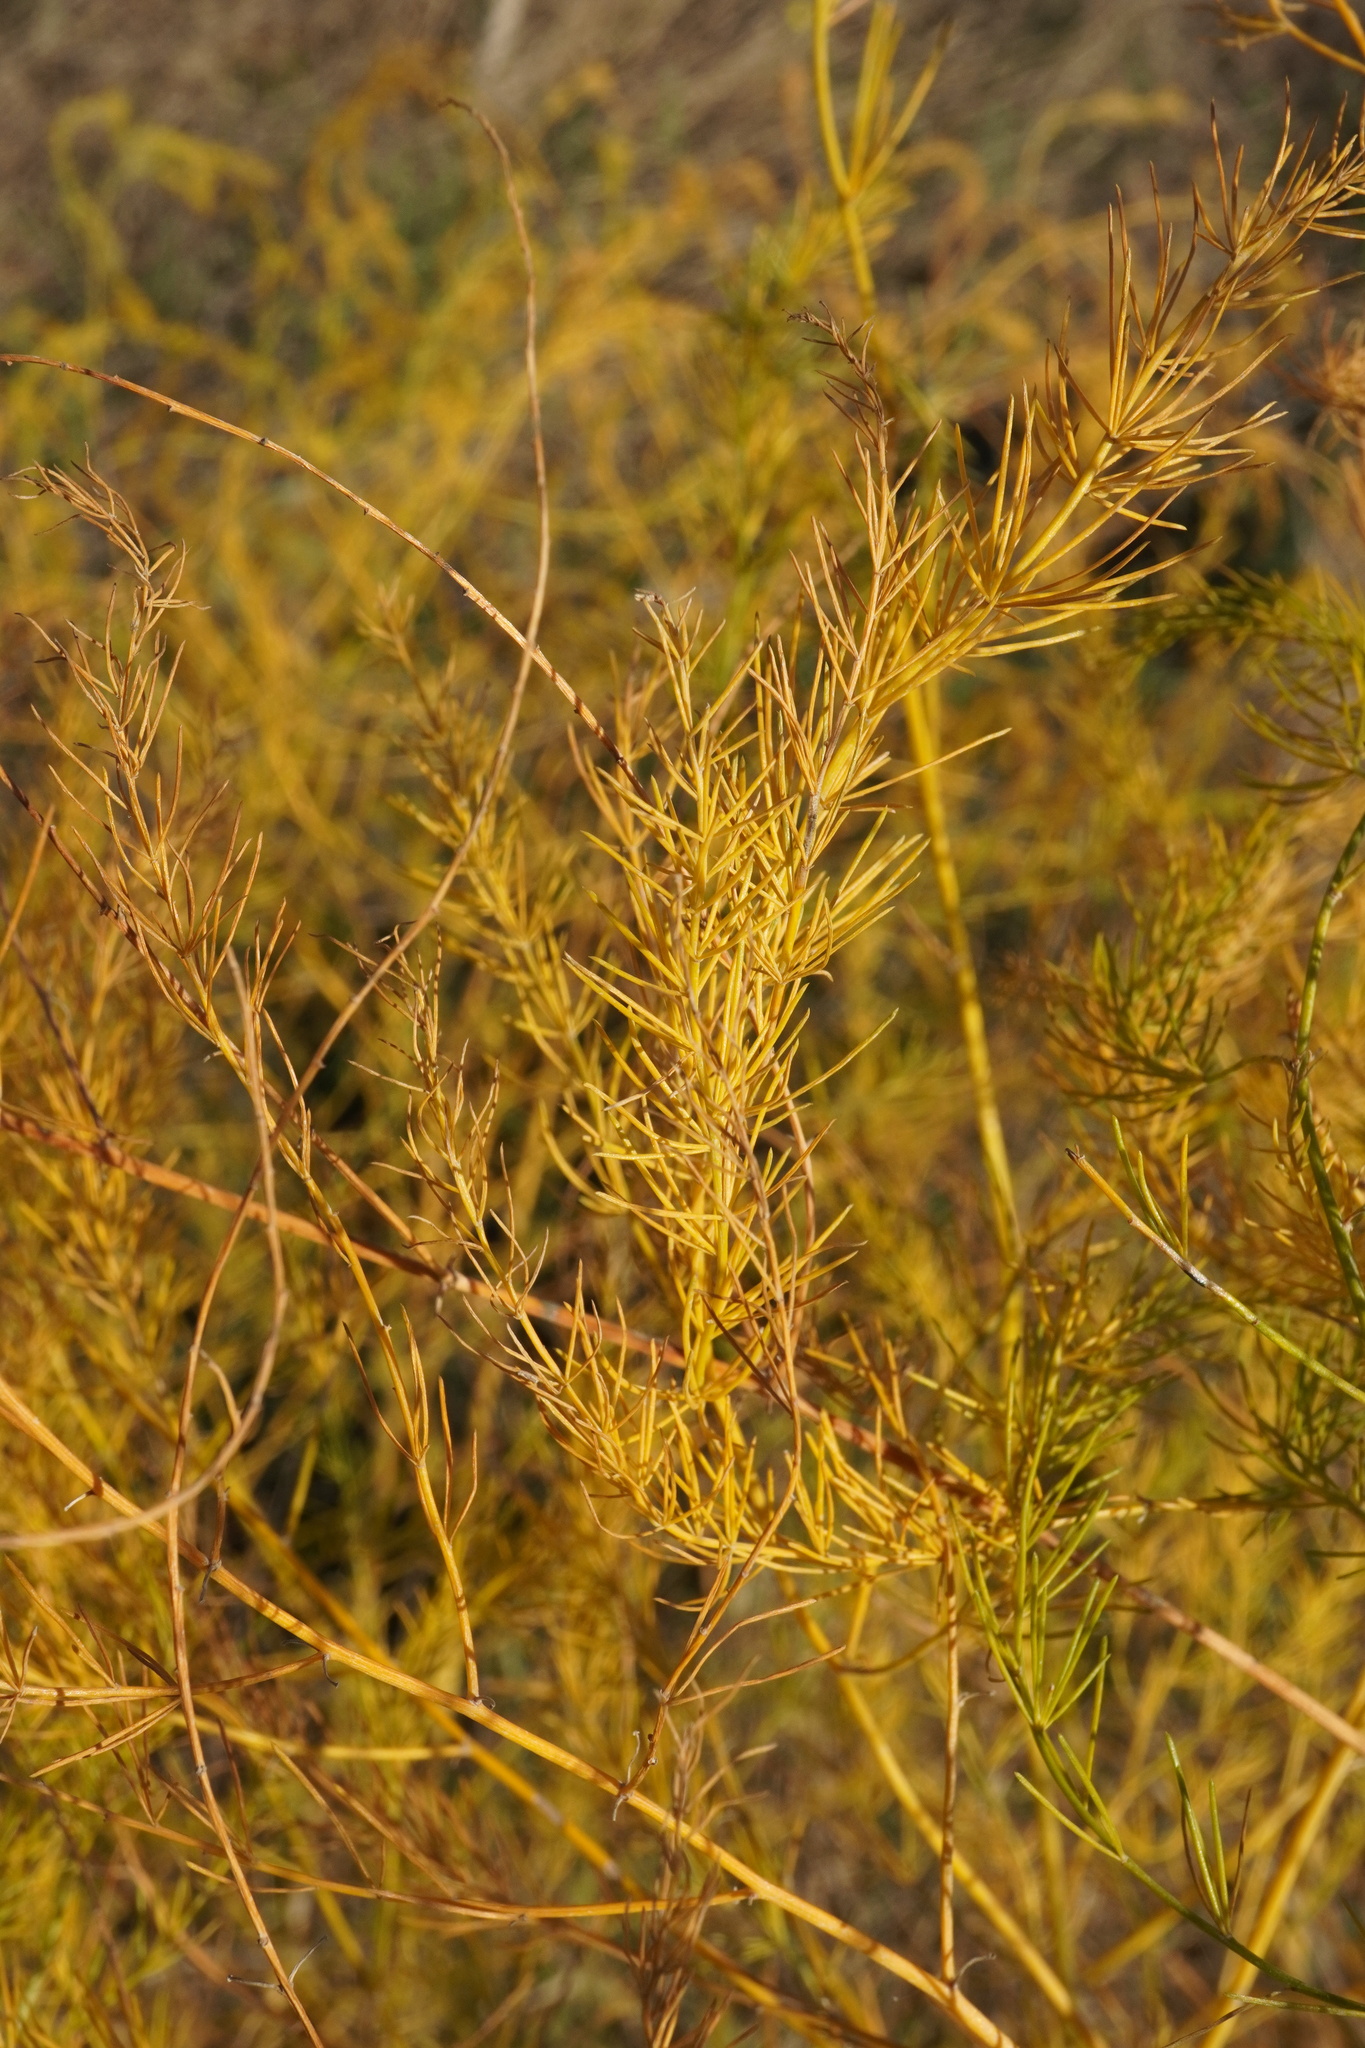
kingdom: Plantae
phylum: Tracheophyta
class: Liliopsida
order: Asparagales
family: Asparagaceae
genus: Asparagus
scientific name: Asparagus officinalis
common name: Garden asparagus
